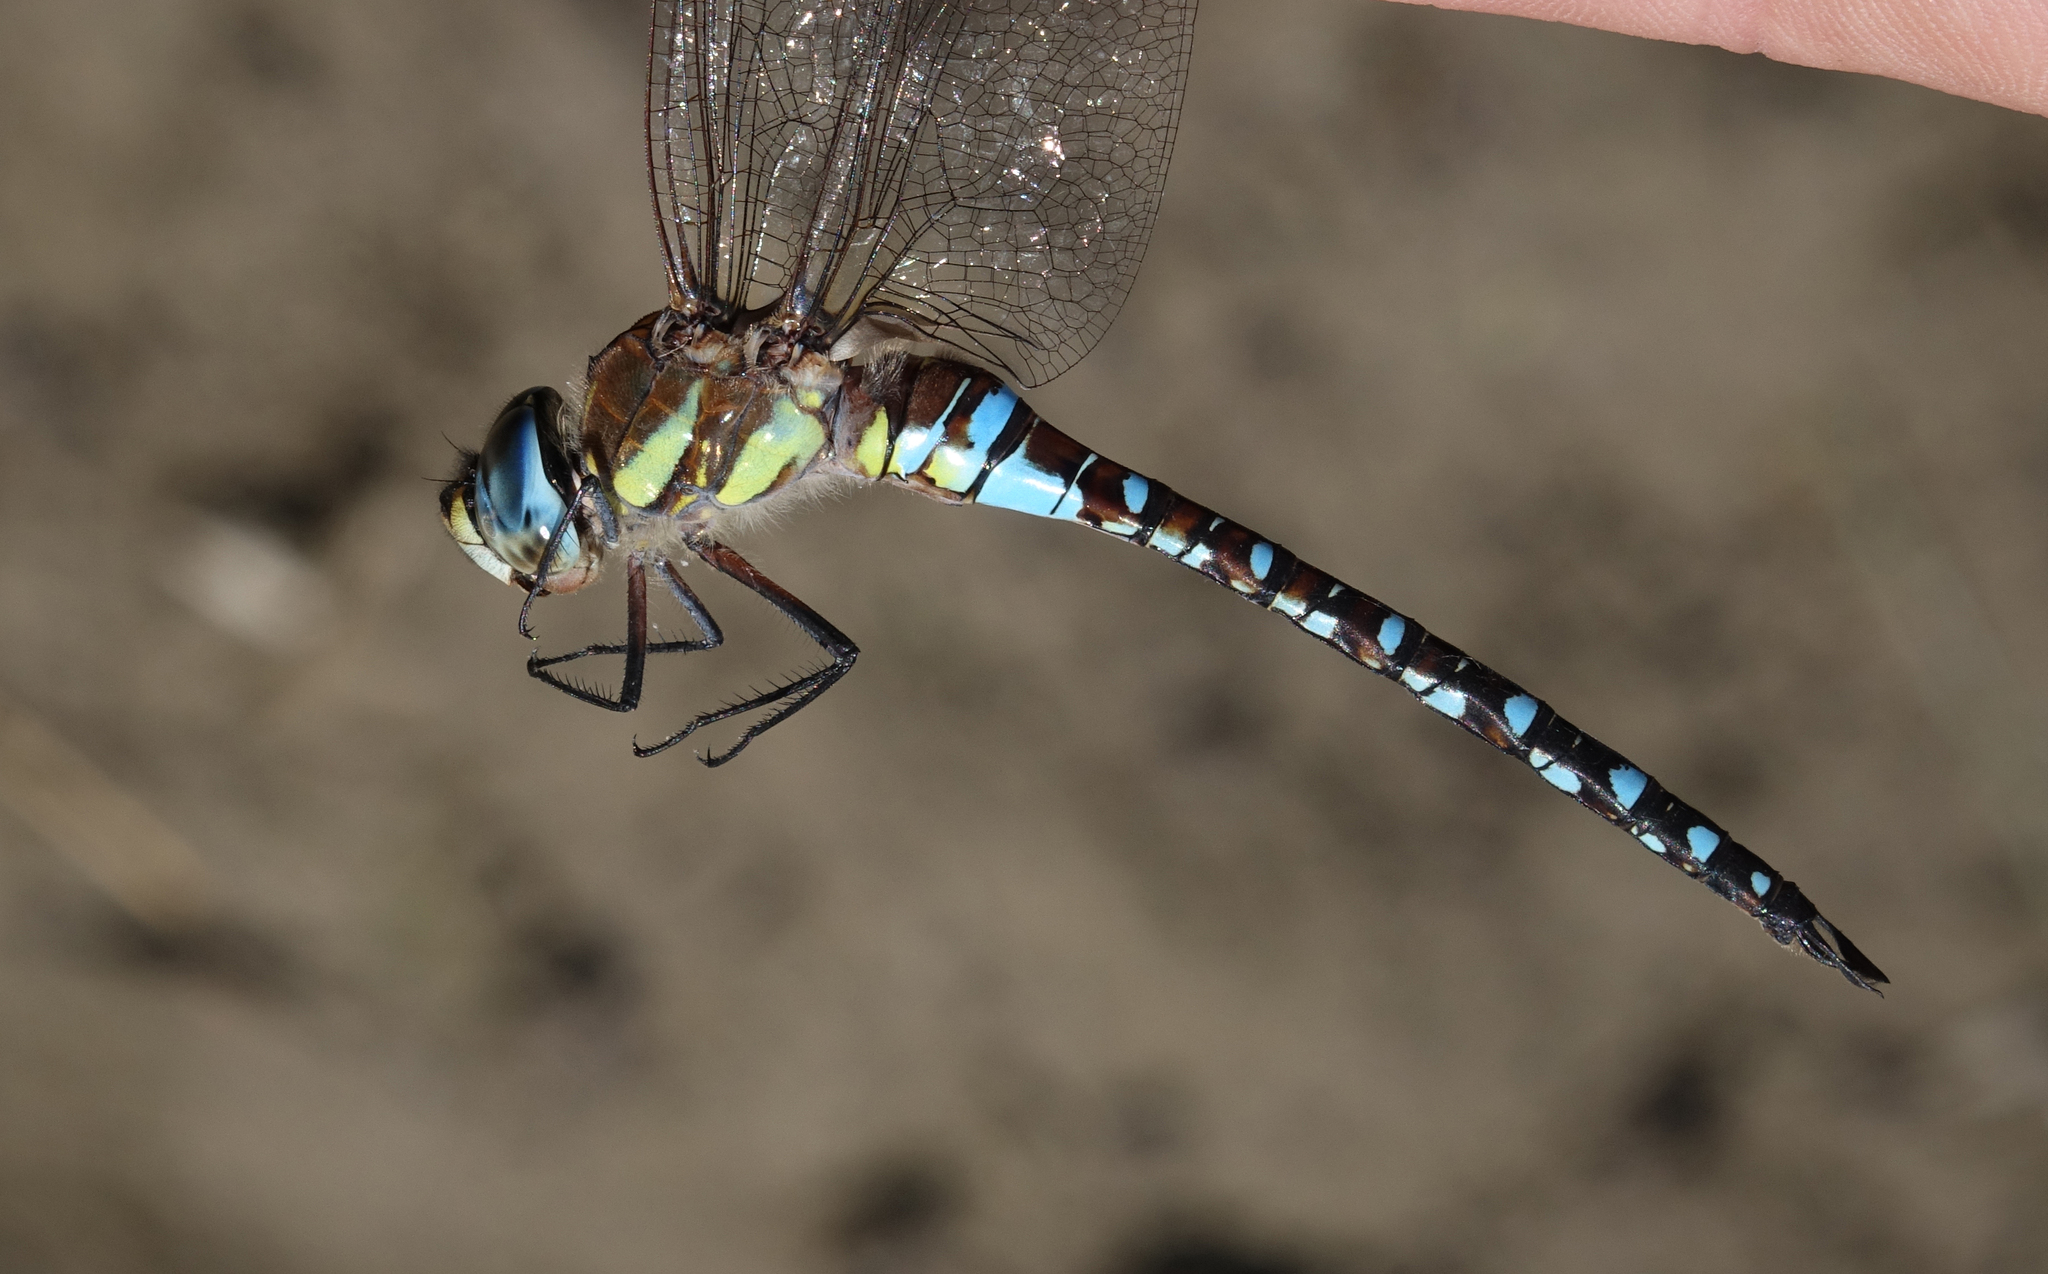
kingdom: Animalia
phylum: Arthropoda
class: Insecta
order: Odonata
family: Aeshnidae
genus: Aeshna
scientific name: Aeshna mixta
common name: Migrant hawker
